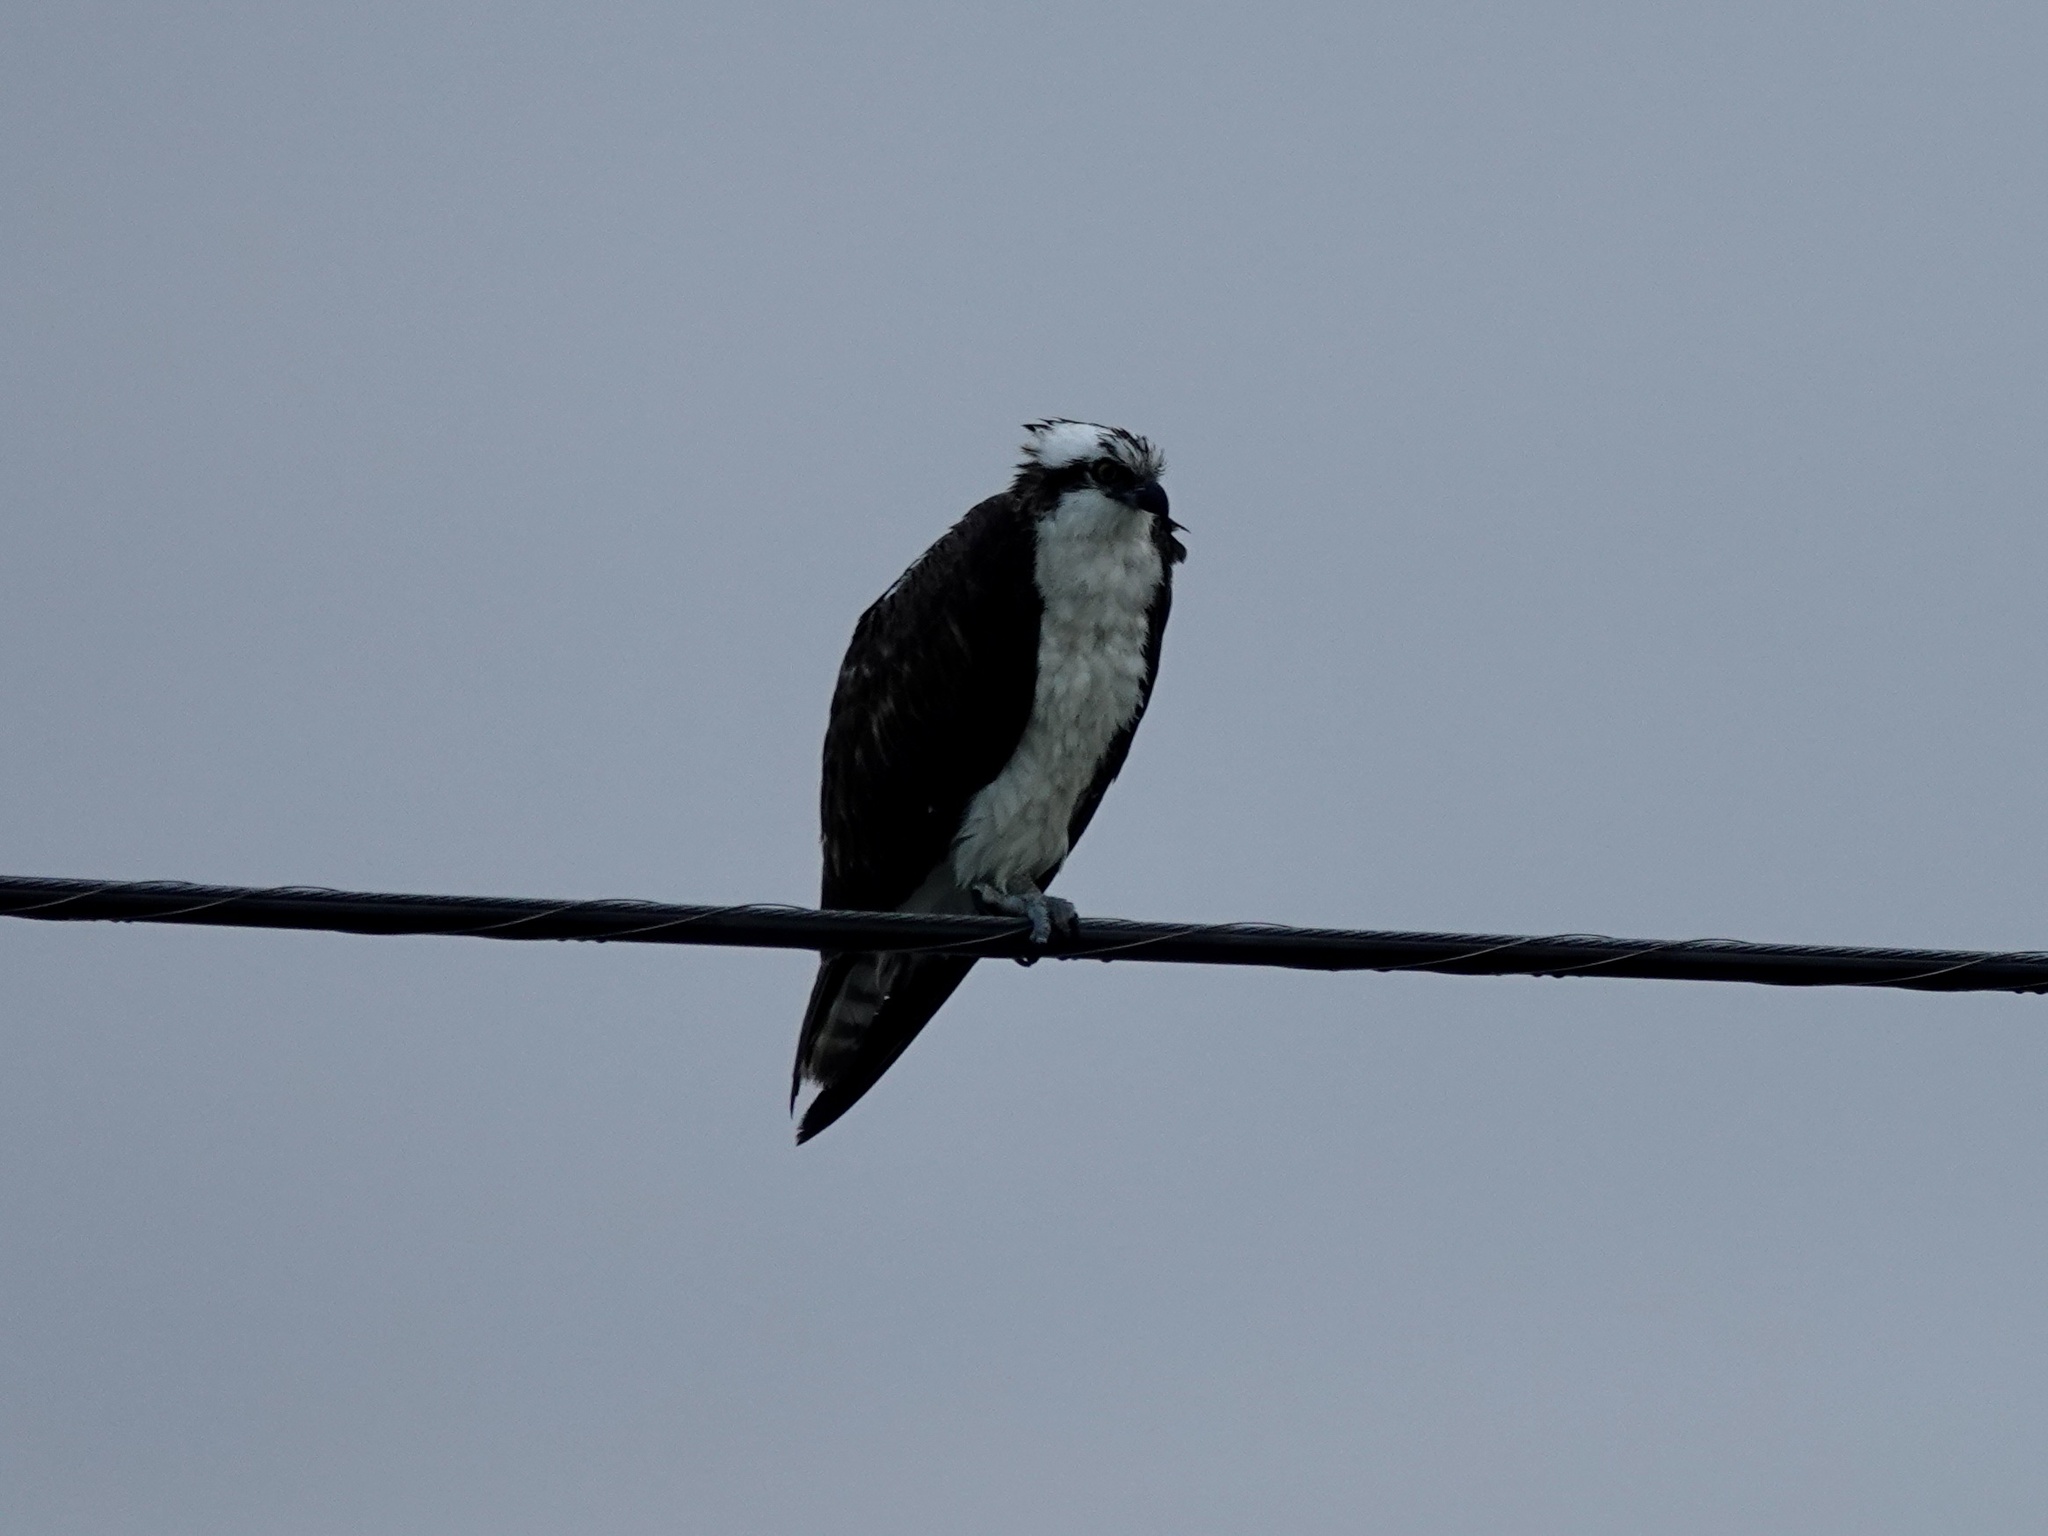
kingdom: Animalia
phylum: Chordata
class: Aves
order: Accipitriformes
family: Pandionidae
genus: Pandion
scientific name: Pandion haliaetus
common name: Osprey
